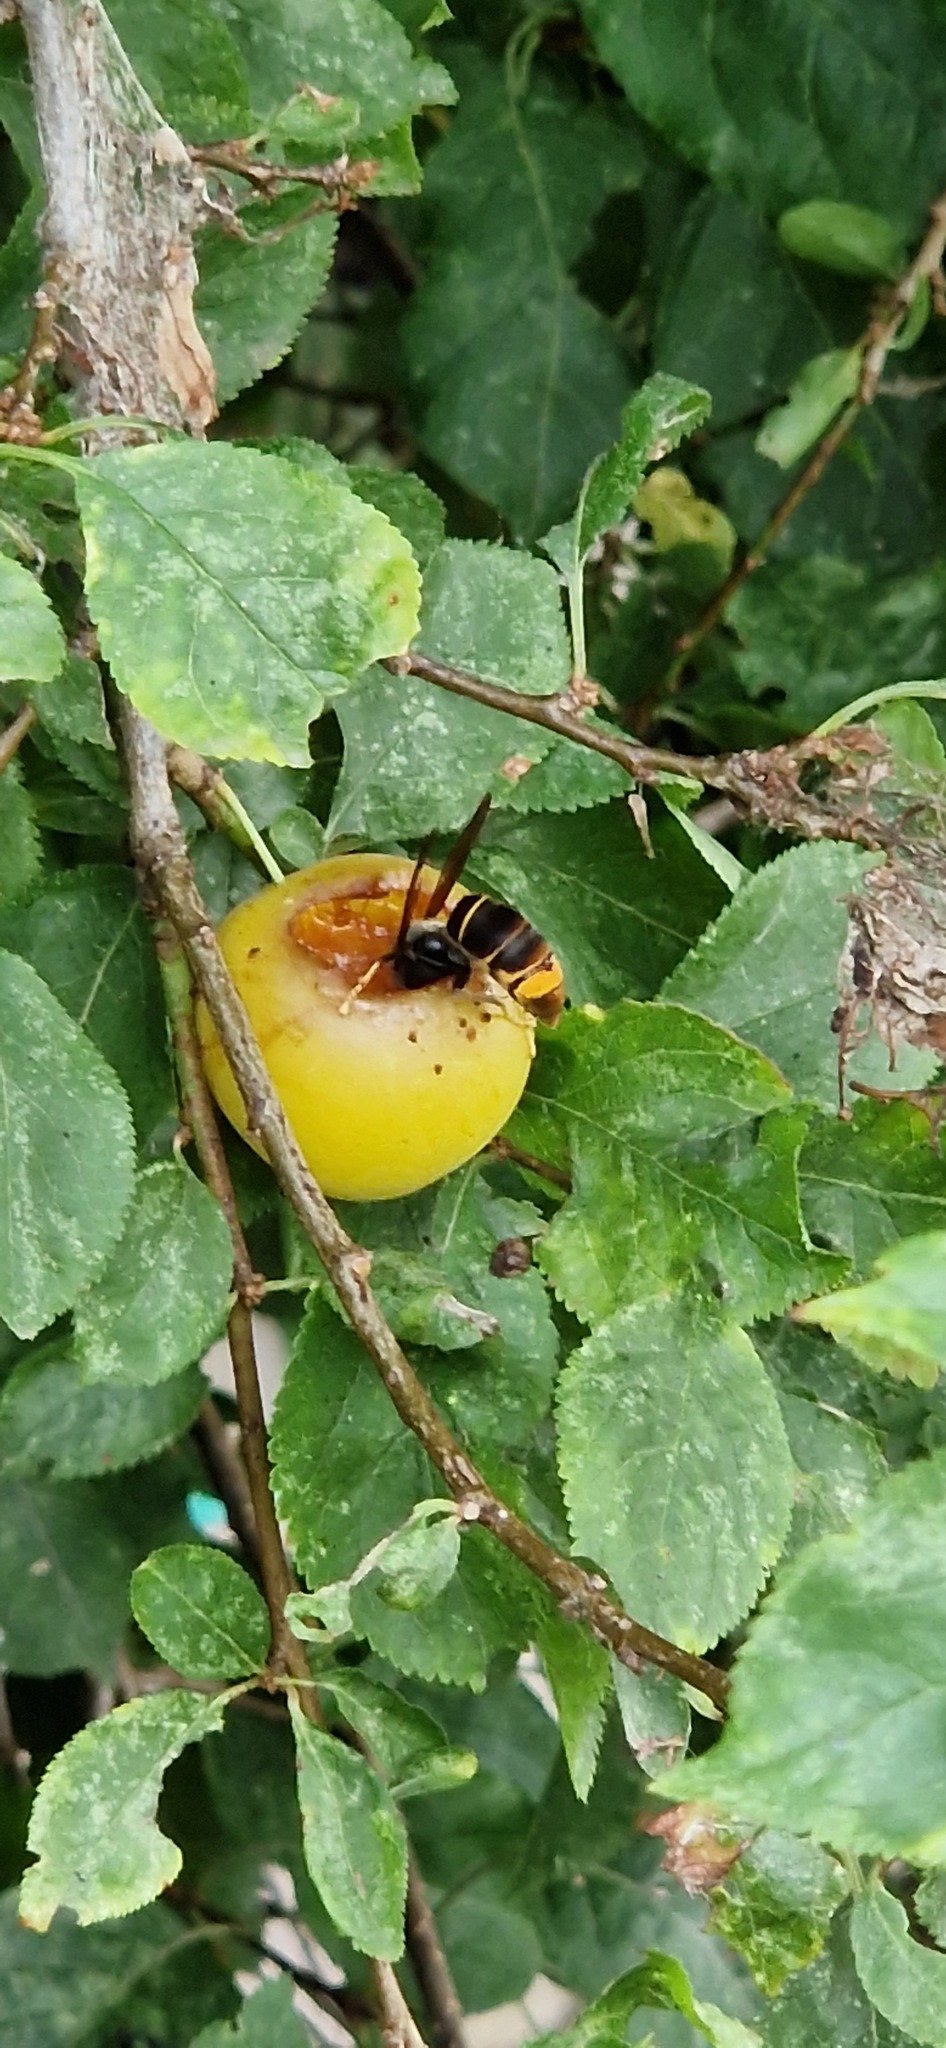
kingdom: Animalia
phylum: Arthropoda
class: Insecta
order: Hymenoptera
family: Vespidae
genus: Vespa
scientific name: Vespa velutina
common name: Asian hornet
